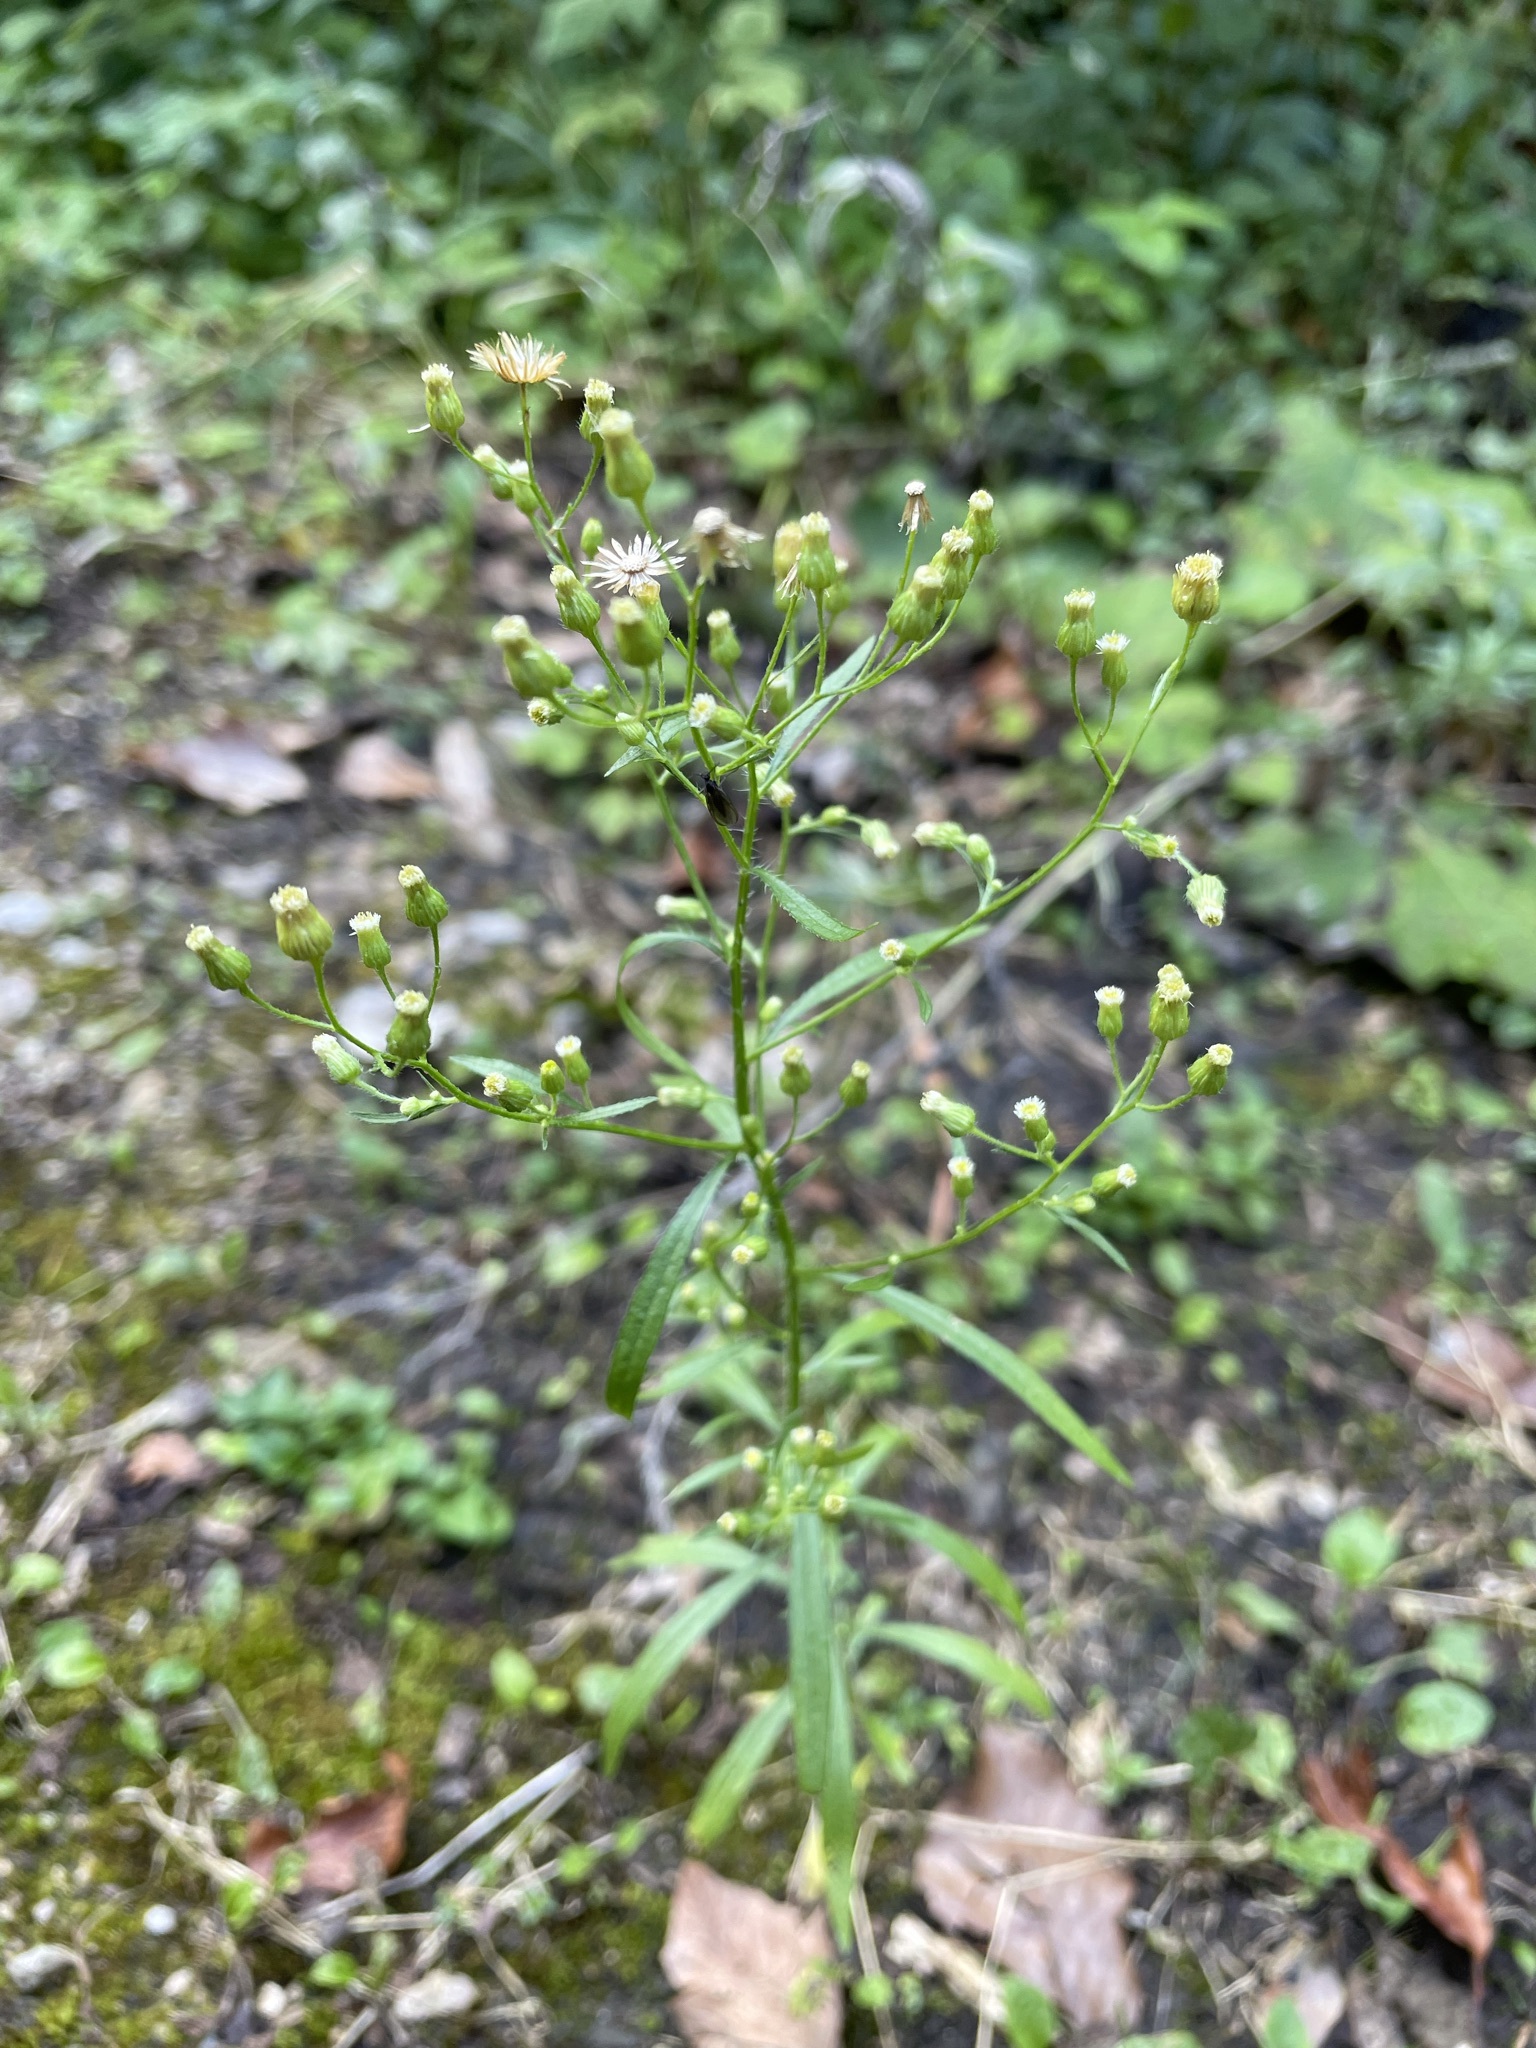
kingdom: Plantae
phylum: Tracheophyta
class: Magnoliopsida
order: Asterales
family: Asteraceae
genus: Erigeron
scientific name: Erigeron canadensis
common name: Canadian fleabane
